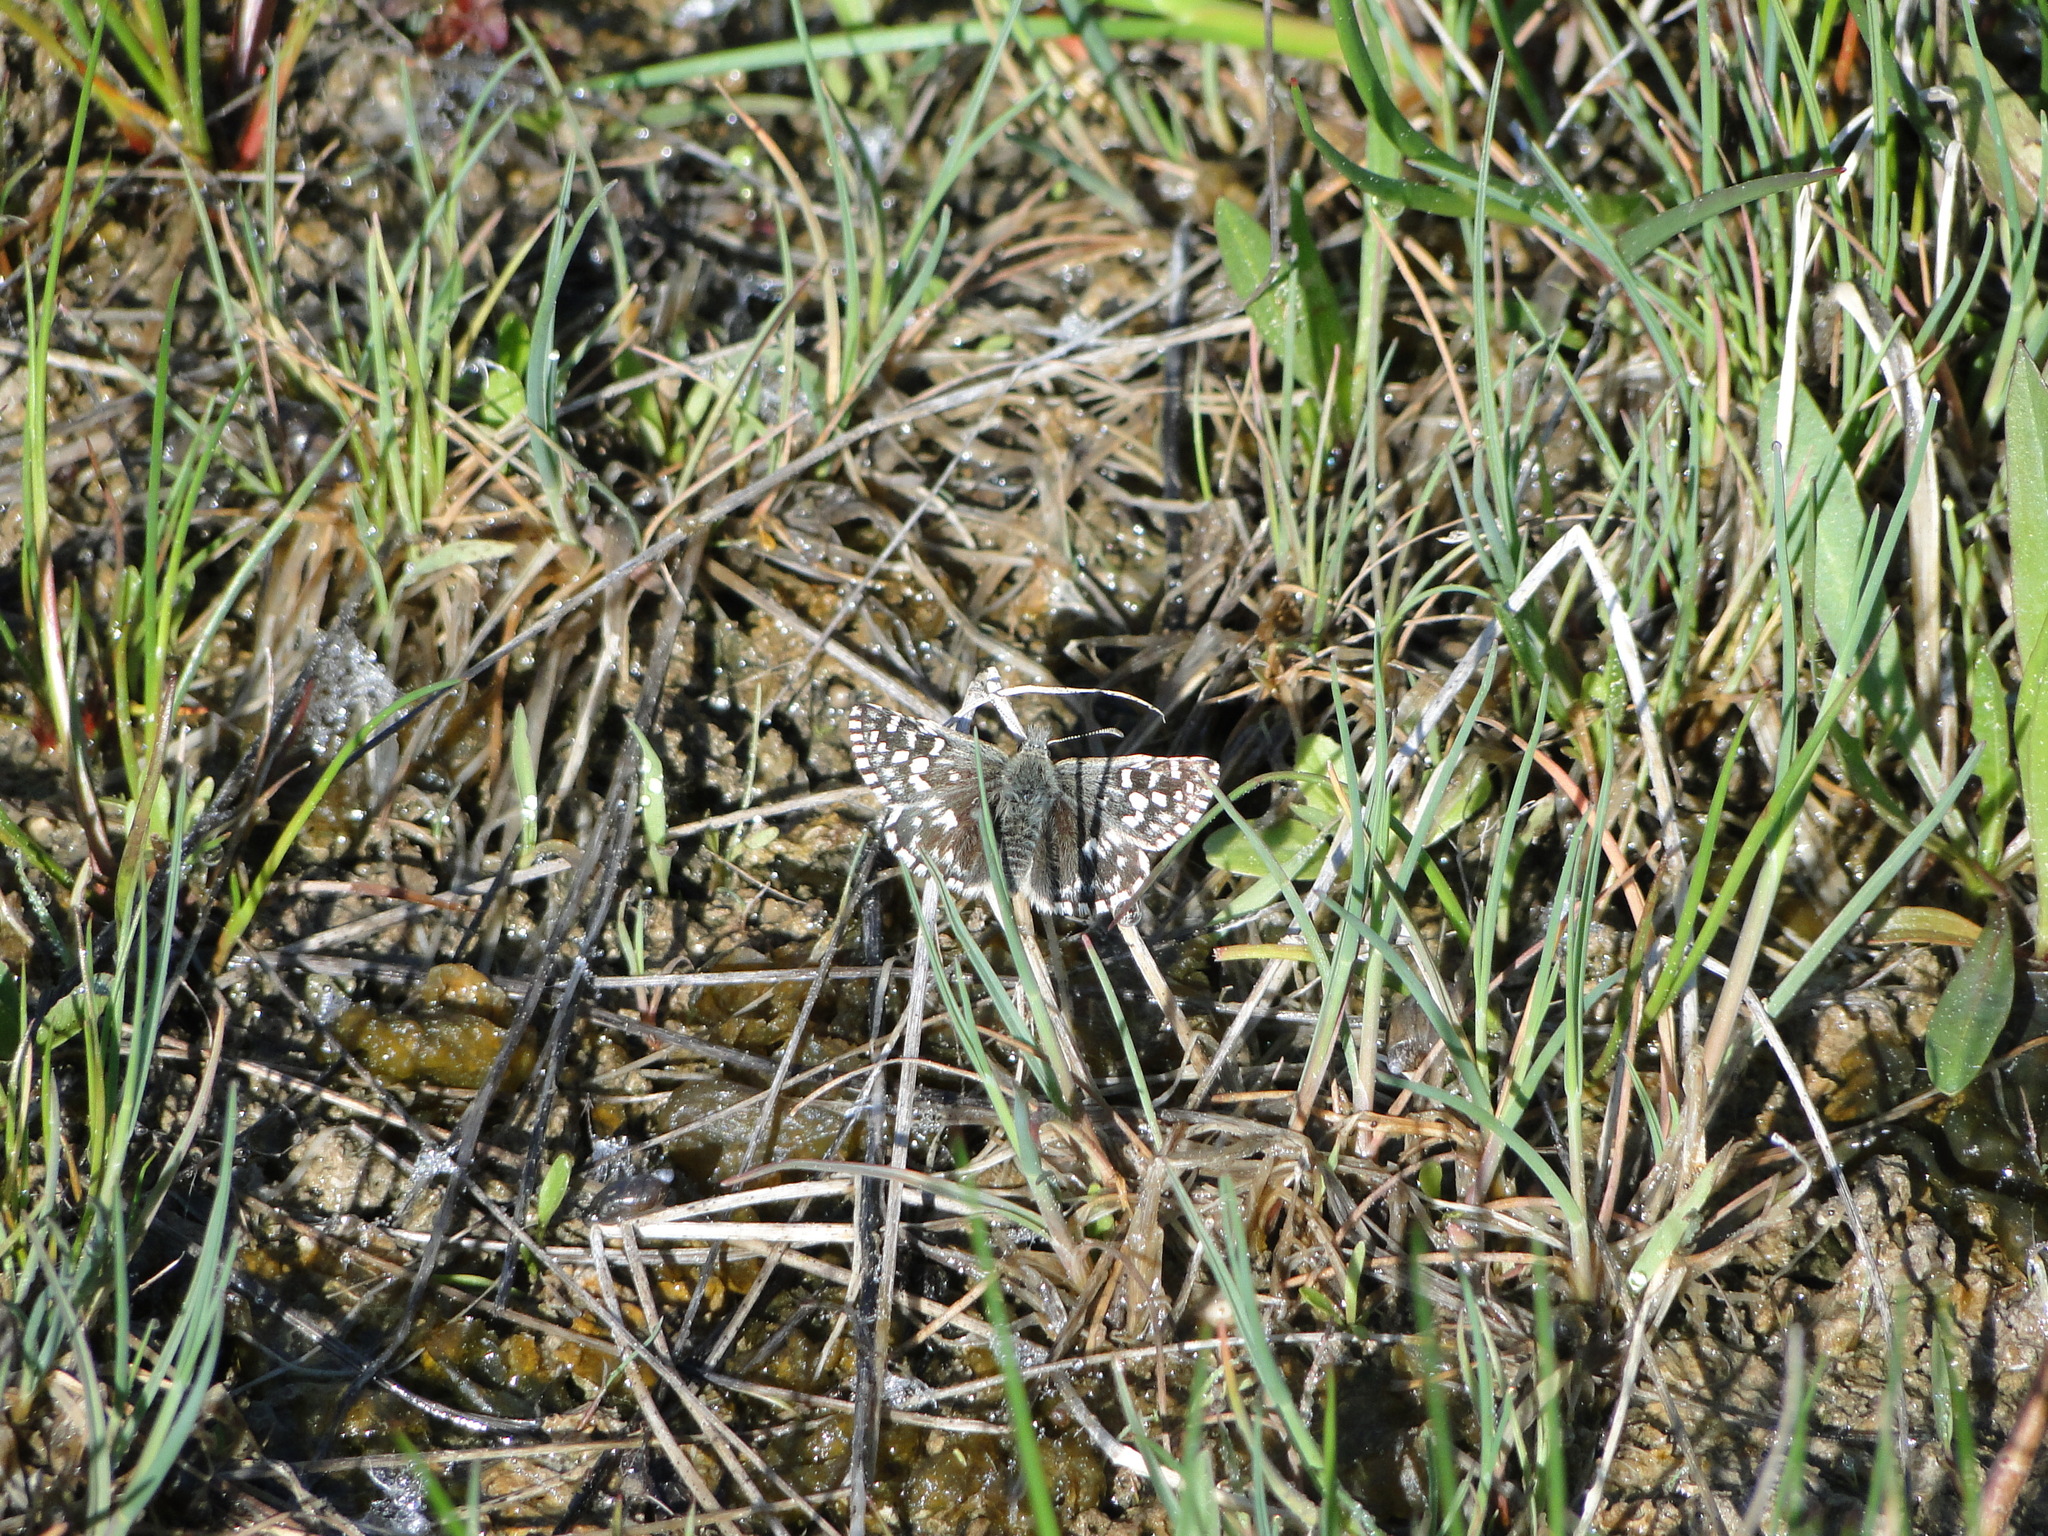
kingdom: Animalia
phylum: Arthropoda
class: Insecta
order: Lepidoptera
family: Hesperiidae
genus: Pyrgus
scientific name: Pyrgus malvae
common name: Grizzled skipper
